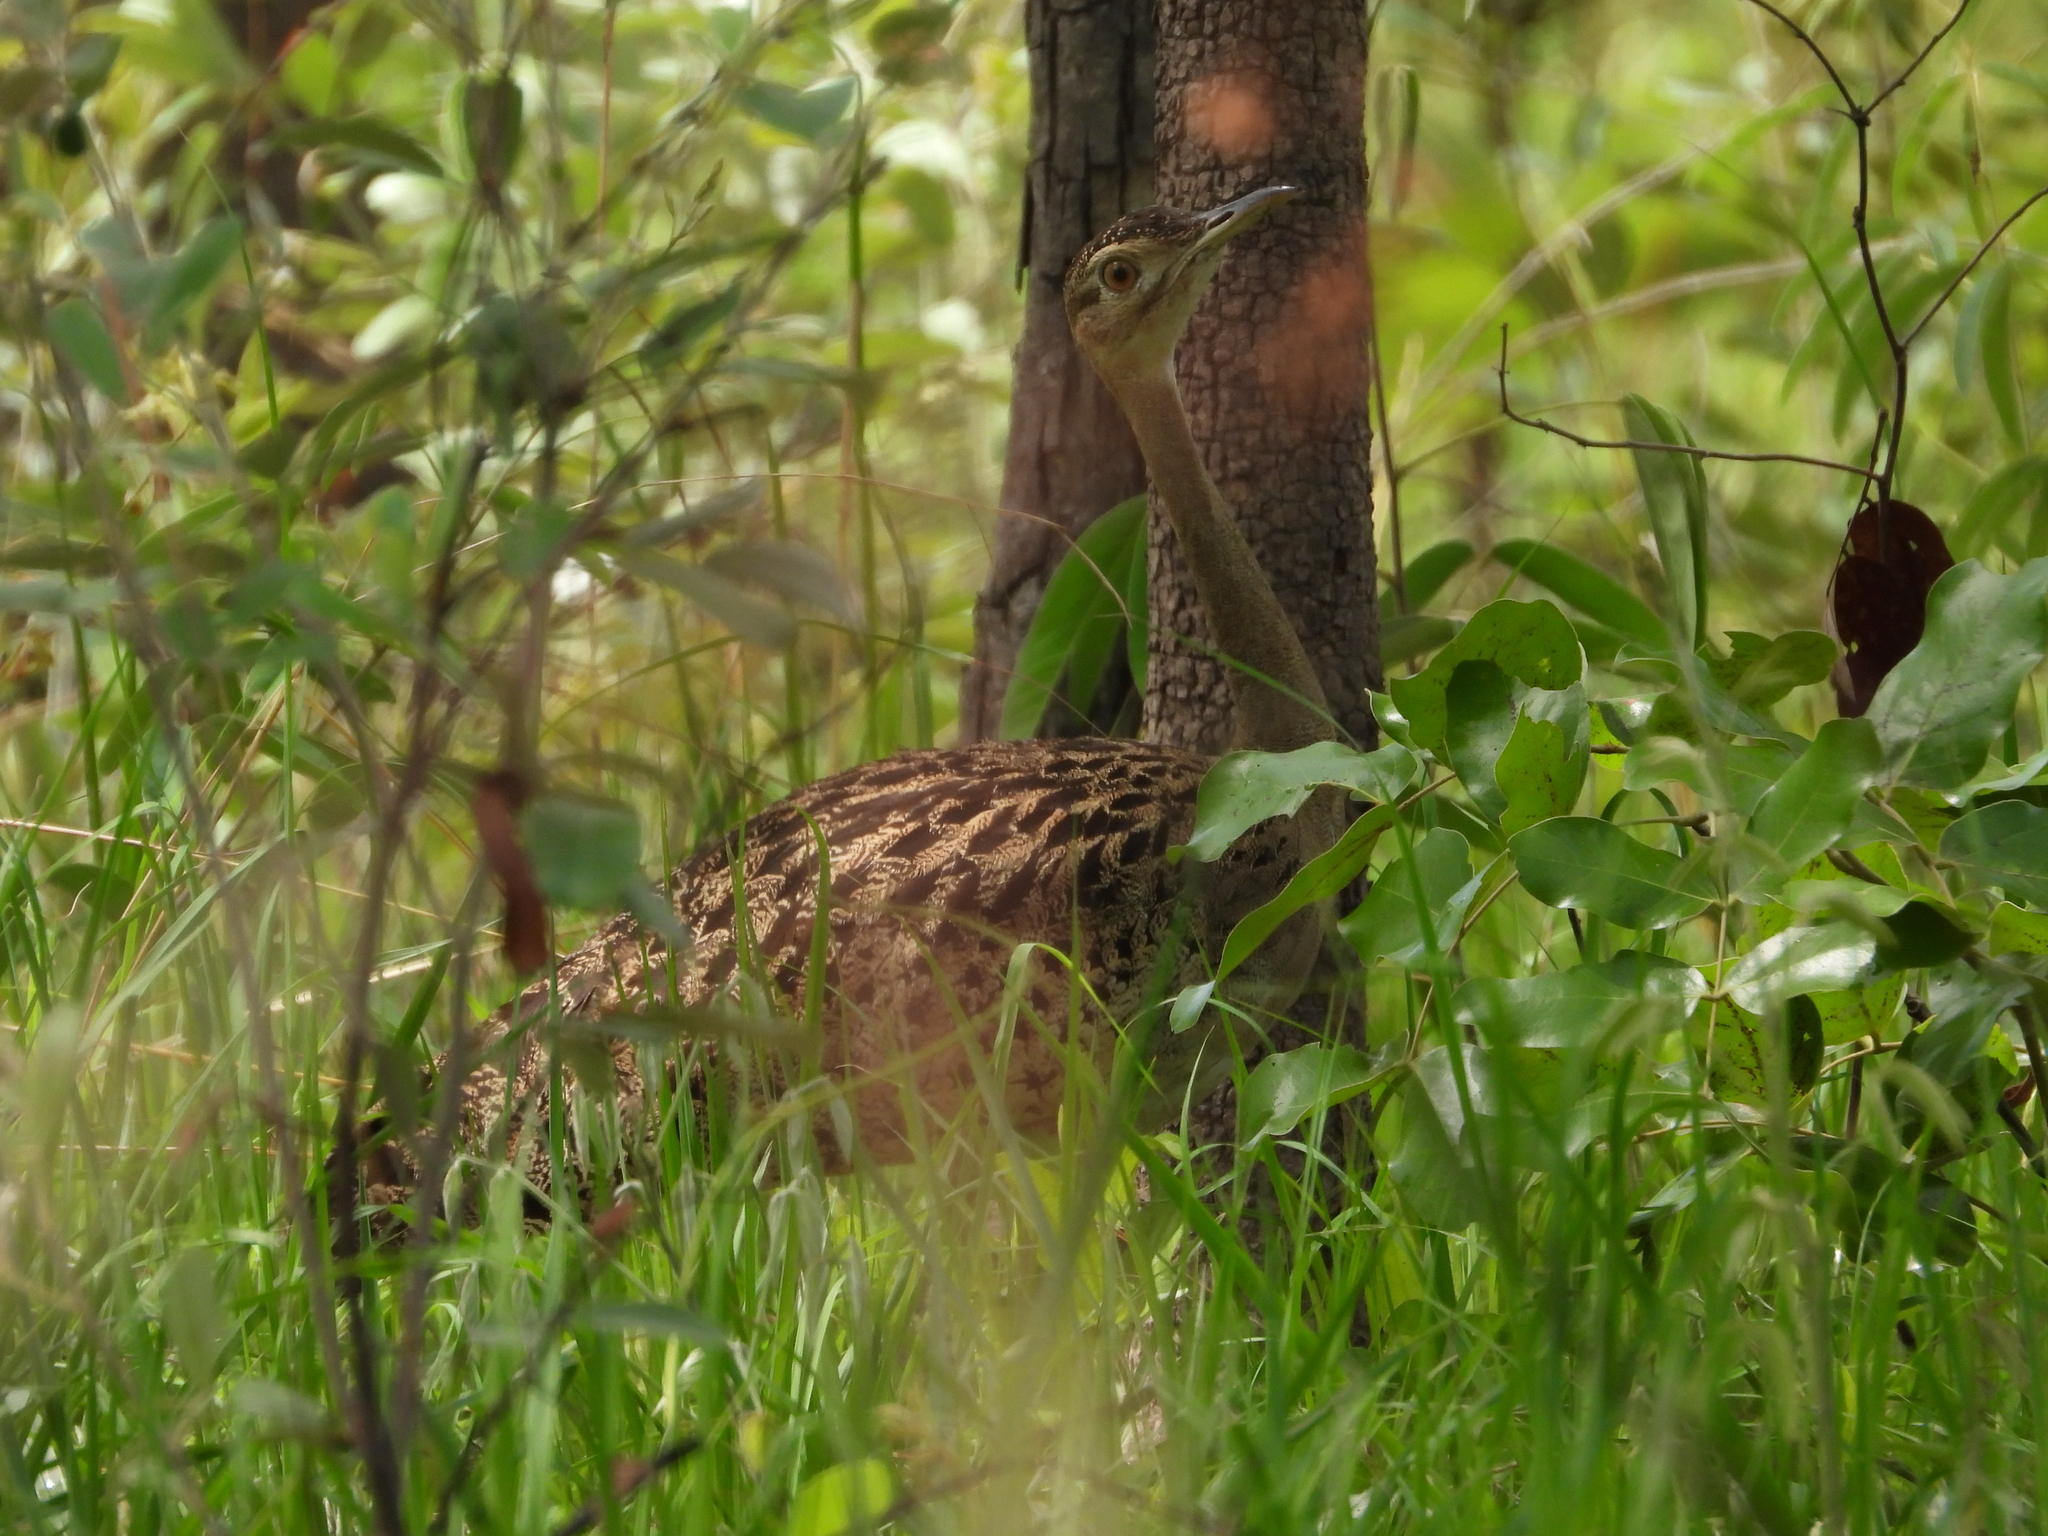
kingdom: Animalia
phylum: Chordata
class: Aves
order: Otidiformes
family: Otididae
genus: Lissotis
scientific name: Lissotis melanogaster
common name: Black-bellied bustard
